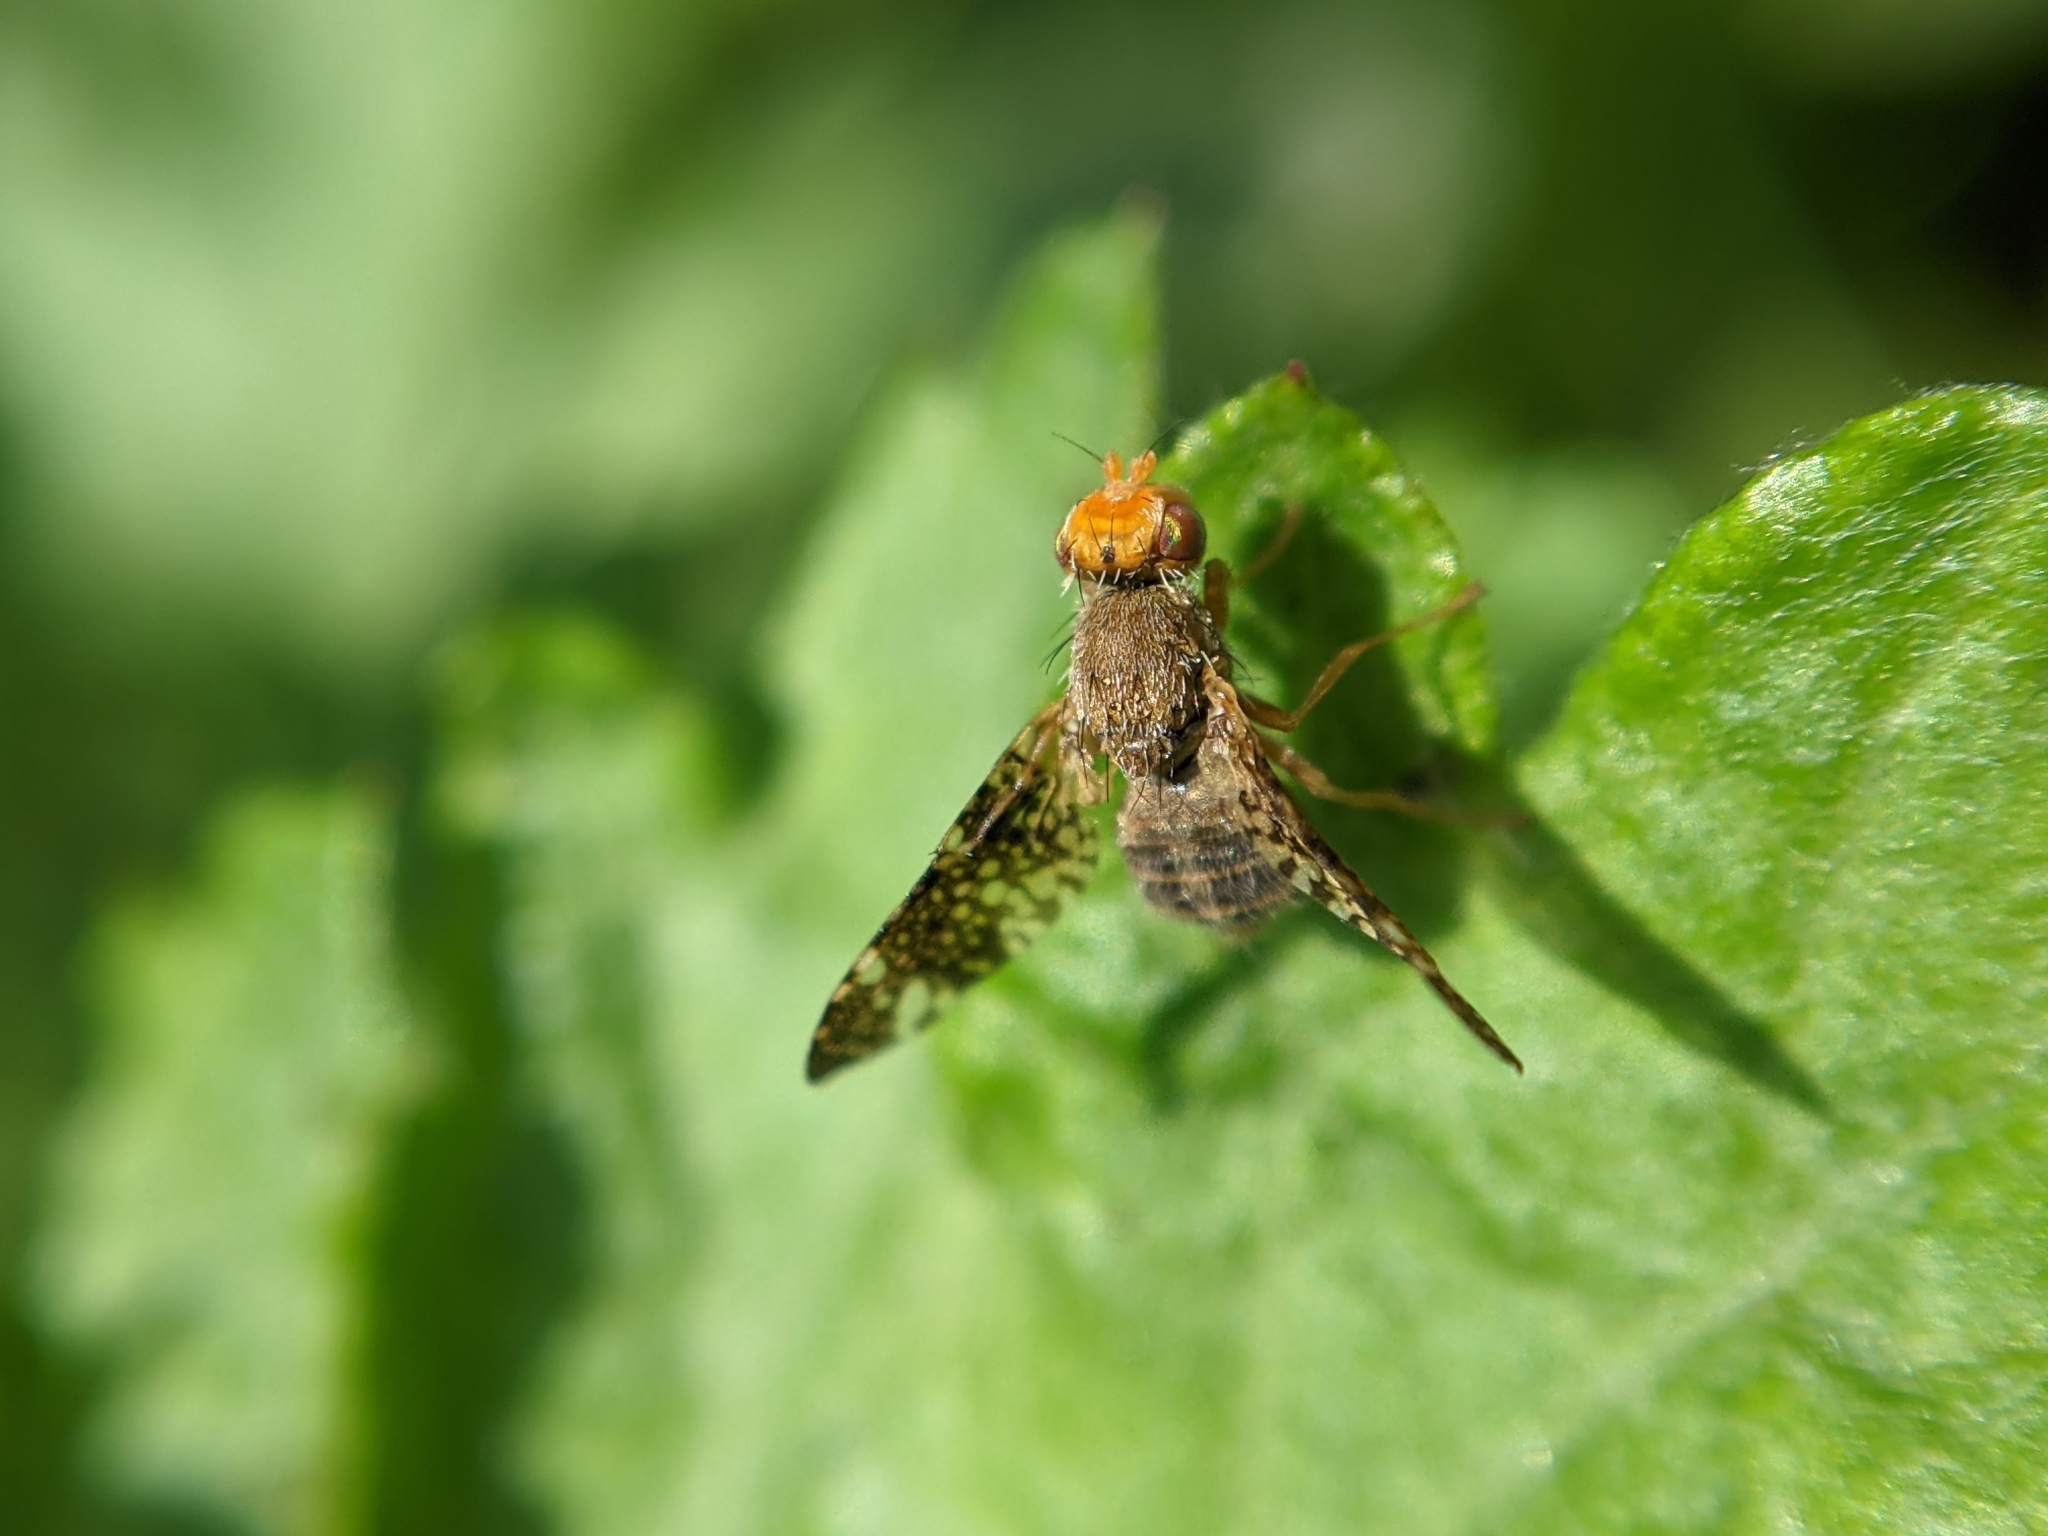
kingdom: Animalia
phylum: Arthropoda
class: Insecta
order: Diptera
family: Tephritidae
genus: Oxyna
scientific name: Oxyna parietina
